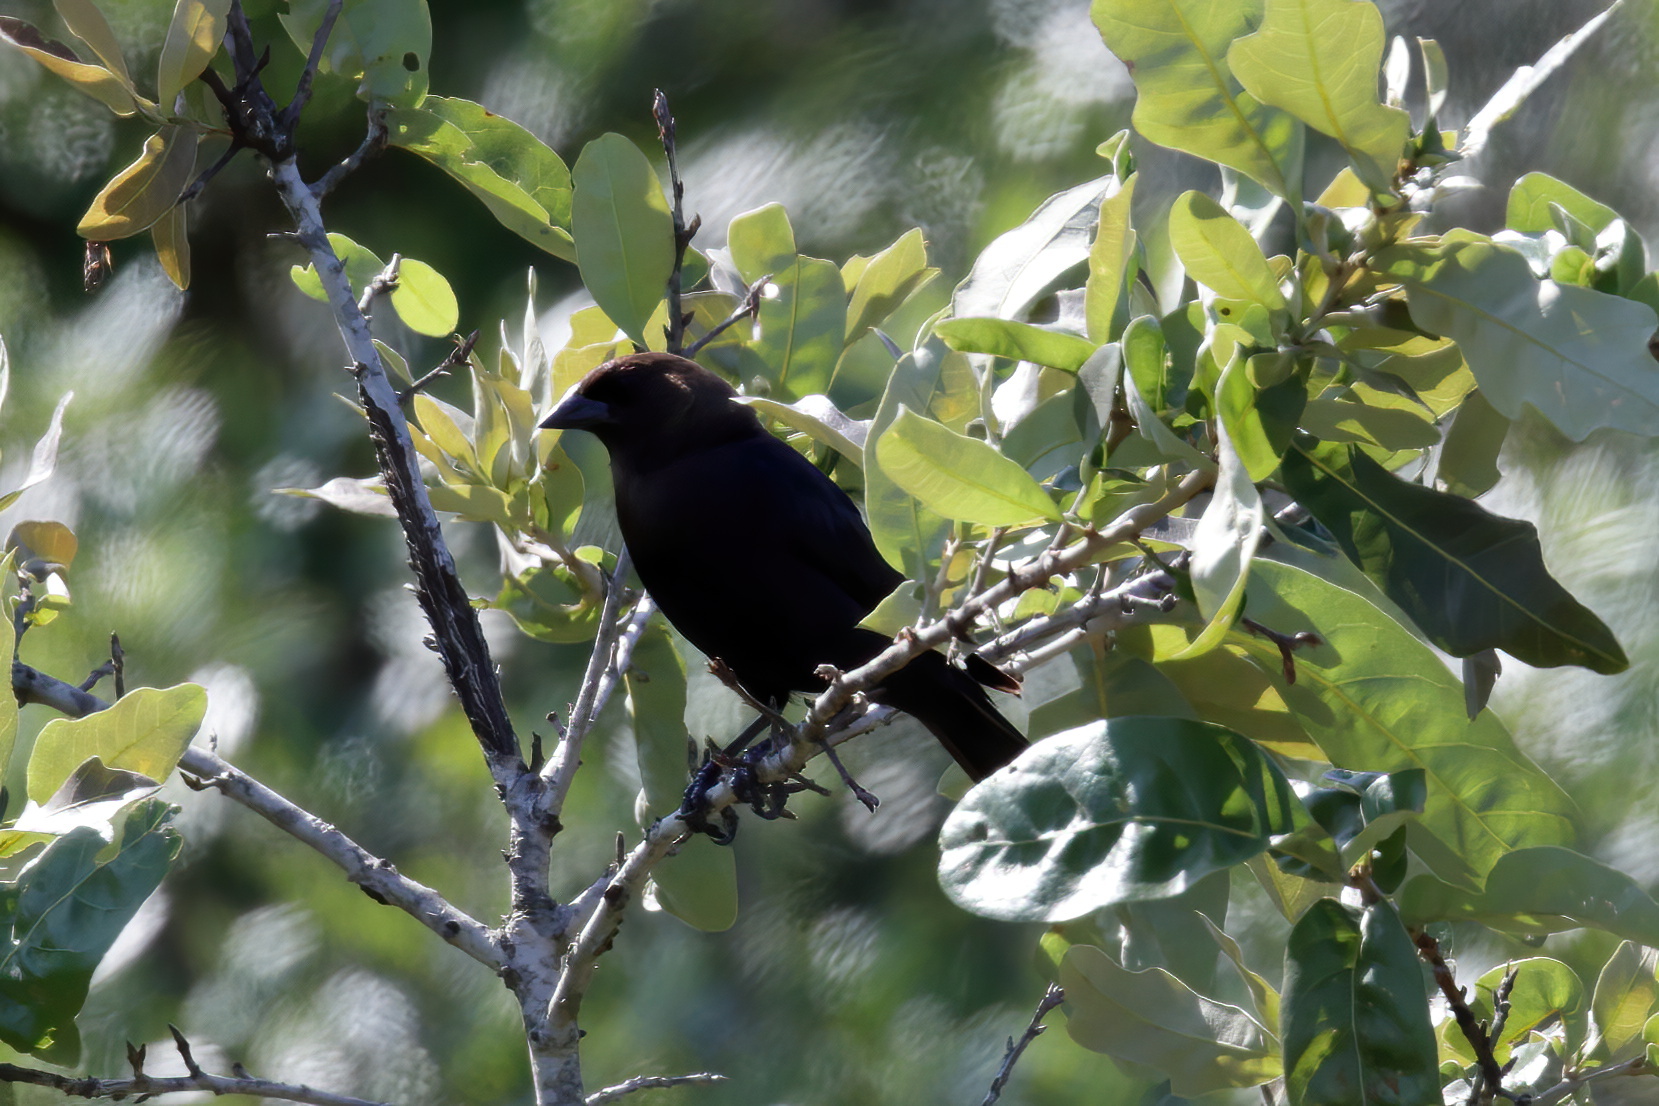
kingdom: Animalia
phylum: Chordata
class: Aves
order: Passeriformes
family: Icteridae
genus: Molothrus
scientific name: Molothrus ater
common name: Brown-headed cowbird
